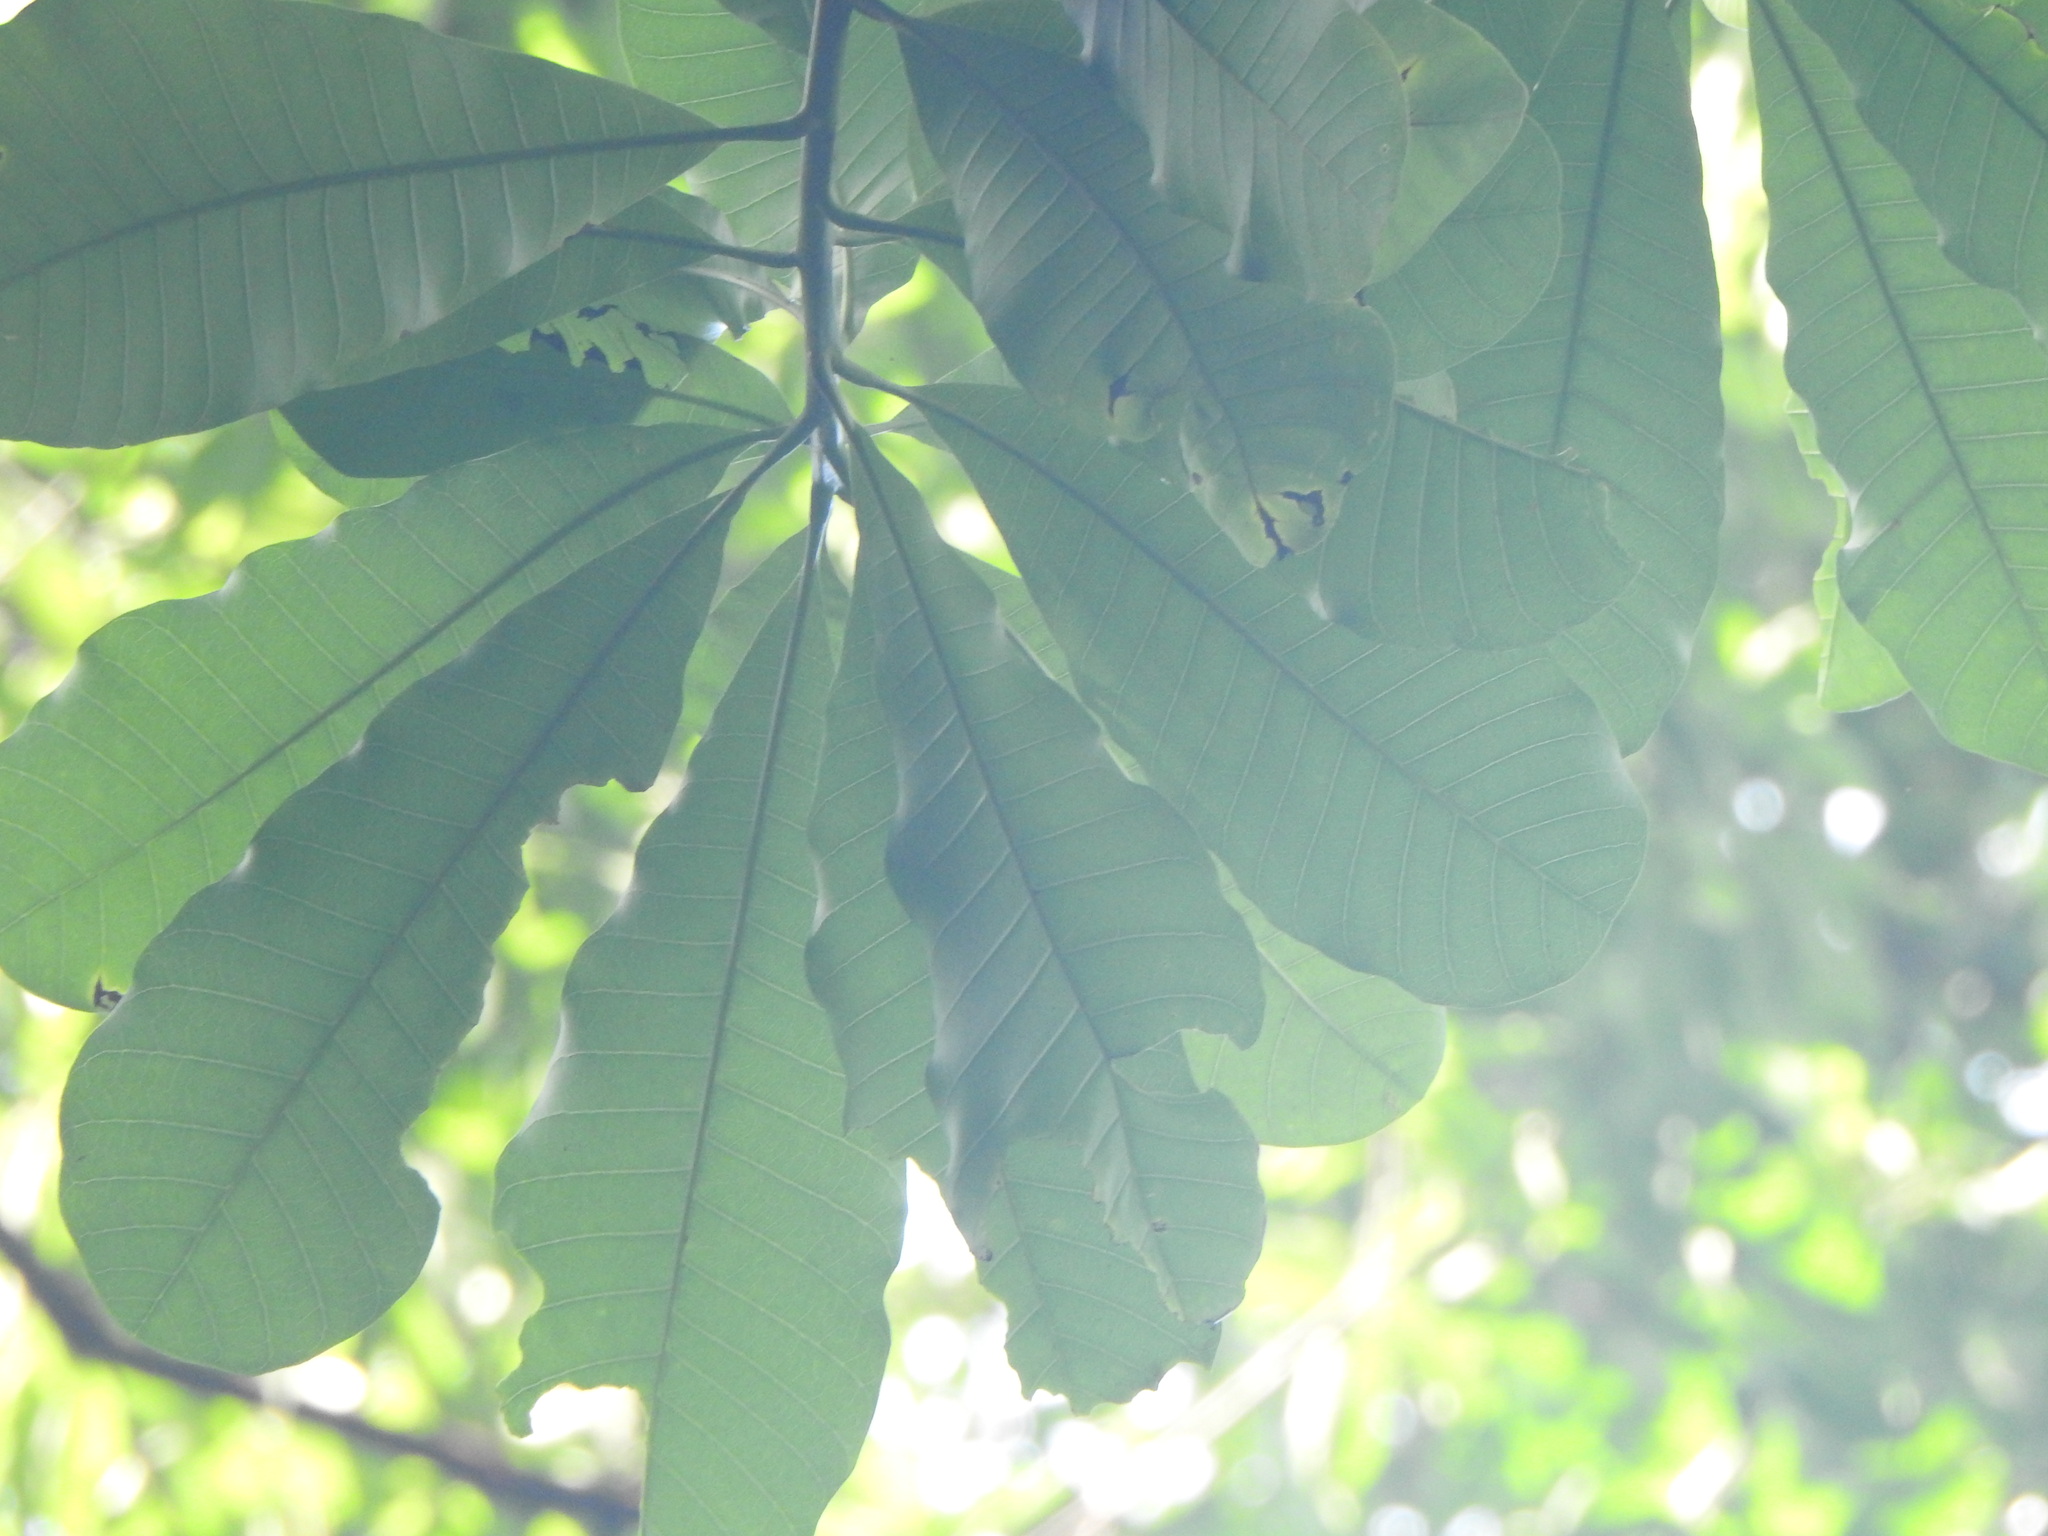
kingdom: Plantae
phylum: Tracheophyta
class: Magnoliopsida
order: Sapindales
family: Anacardiaceae
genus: Anacardium
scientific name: Anacardium excelsum
